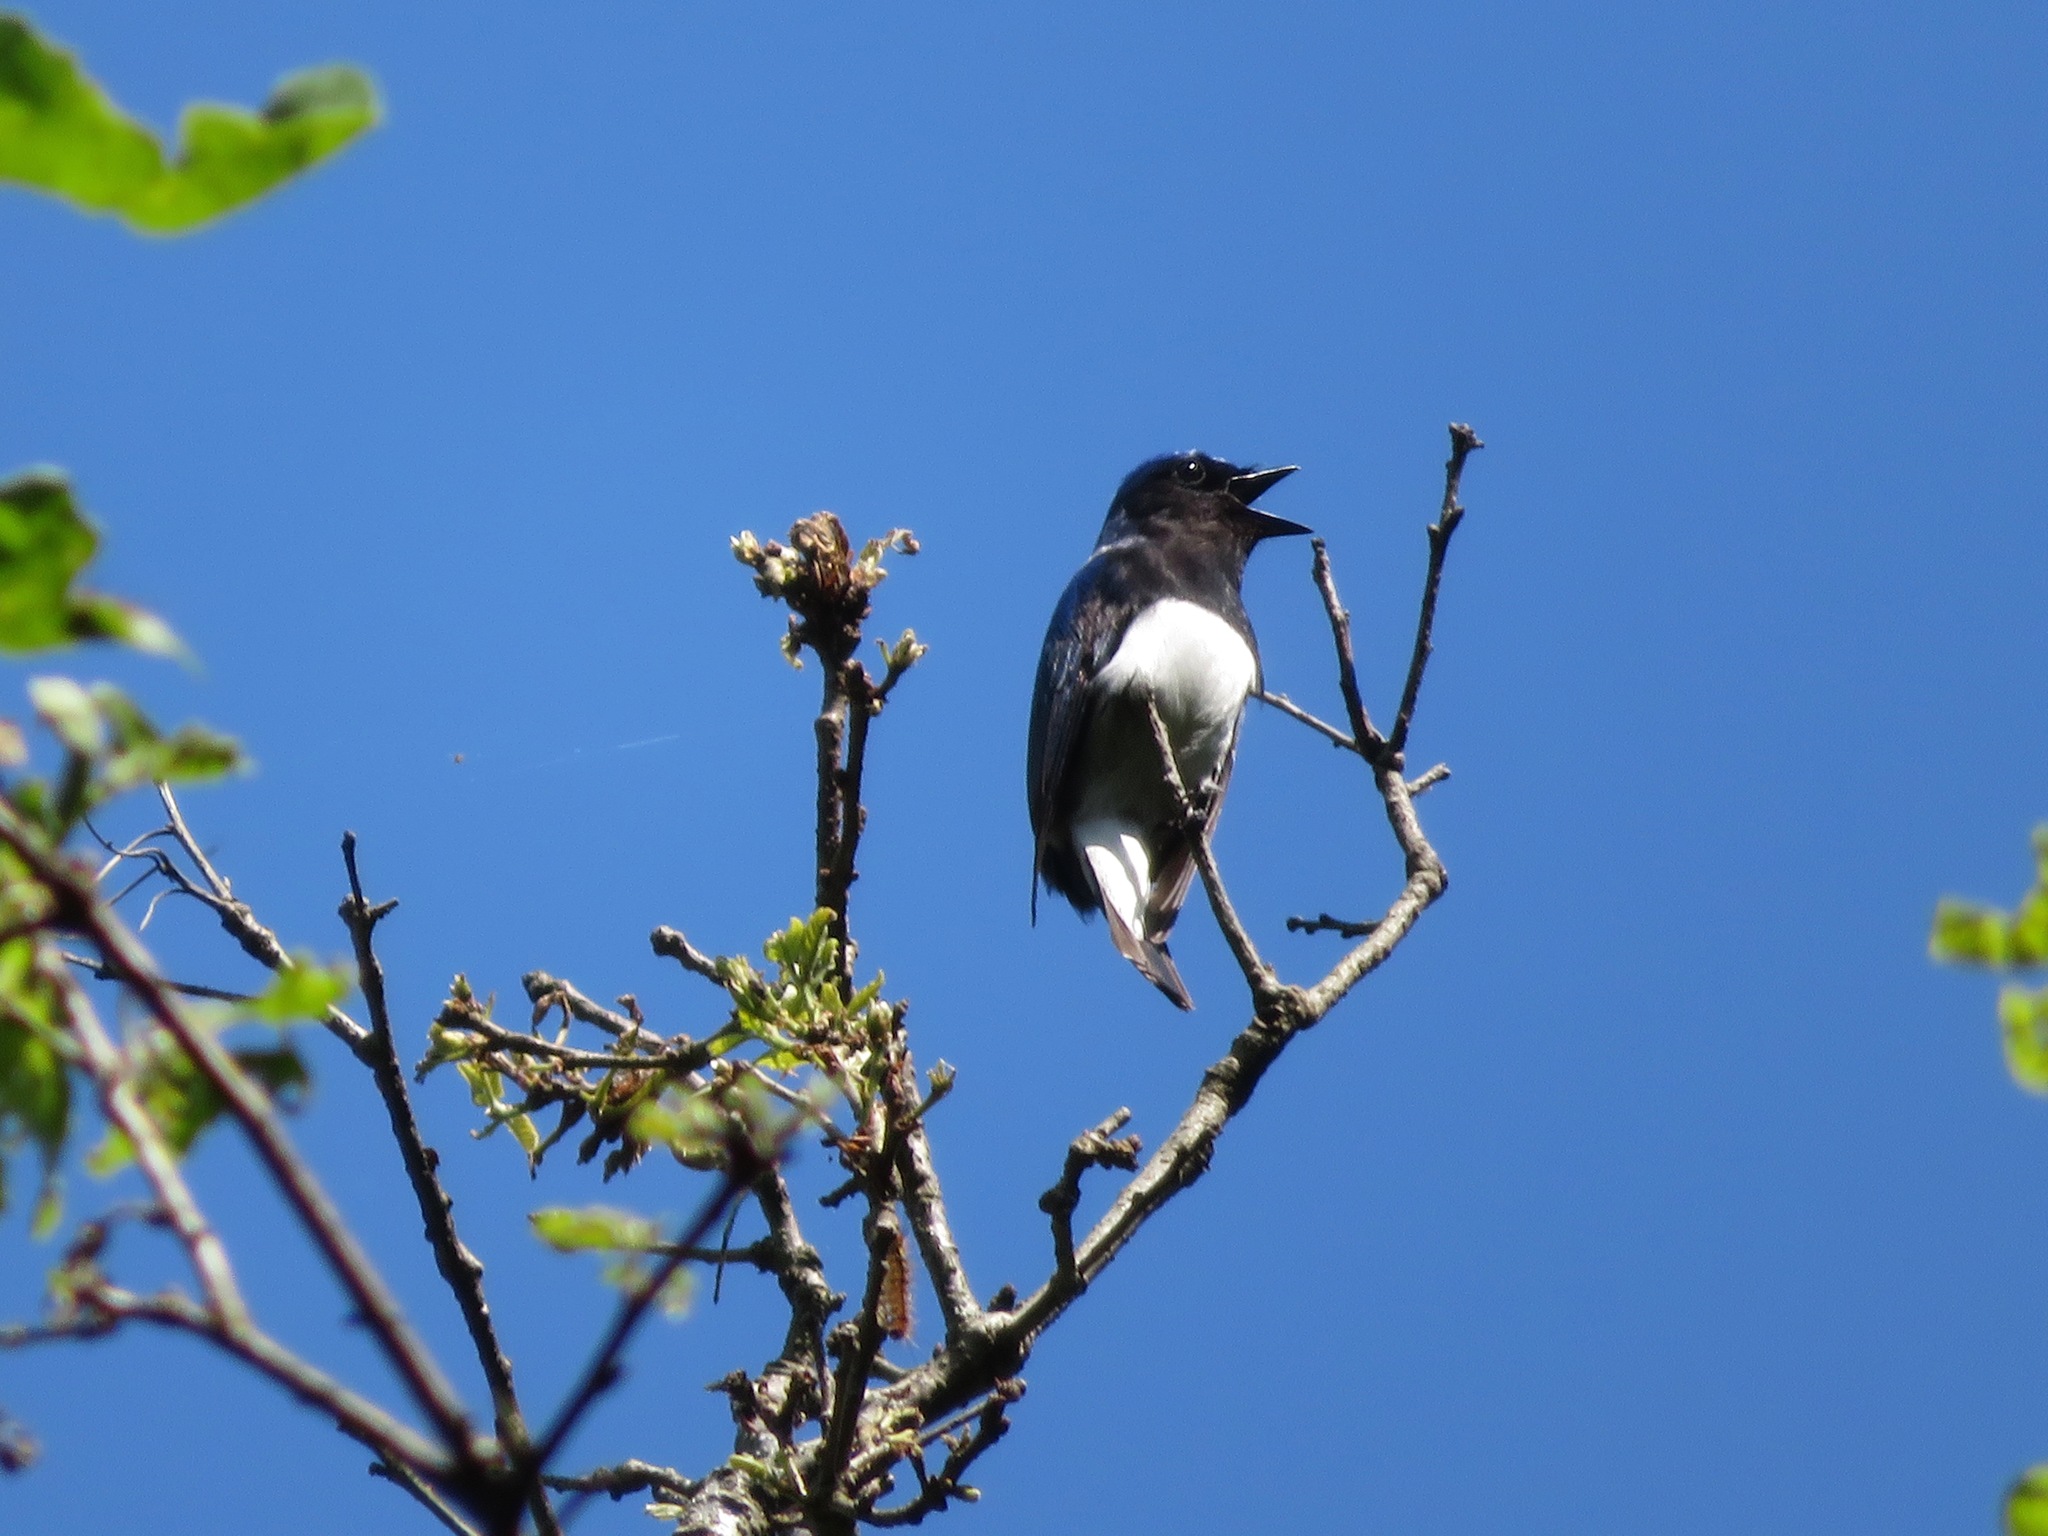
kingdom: Animalia
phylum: Chordata
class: Aves
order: Passeriformes
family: Muscicapidae
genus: Cyanoptila
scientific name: Cyanoptila cyanomelana
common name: Blue-and-white flycatcher
